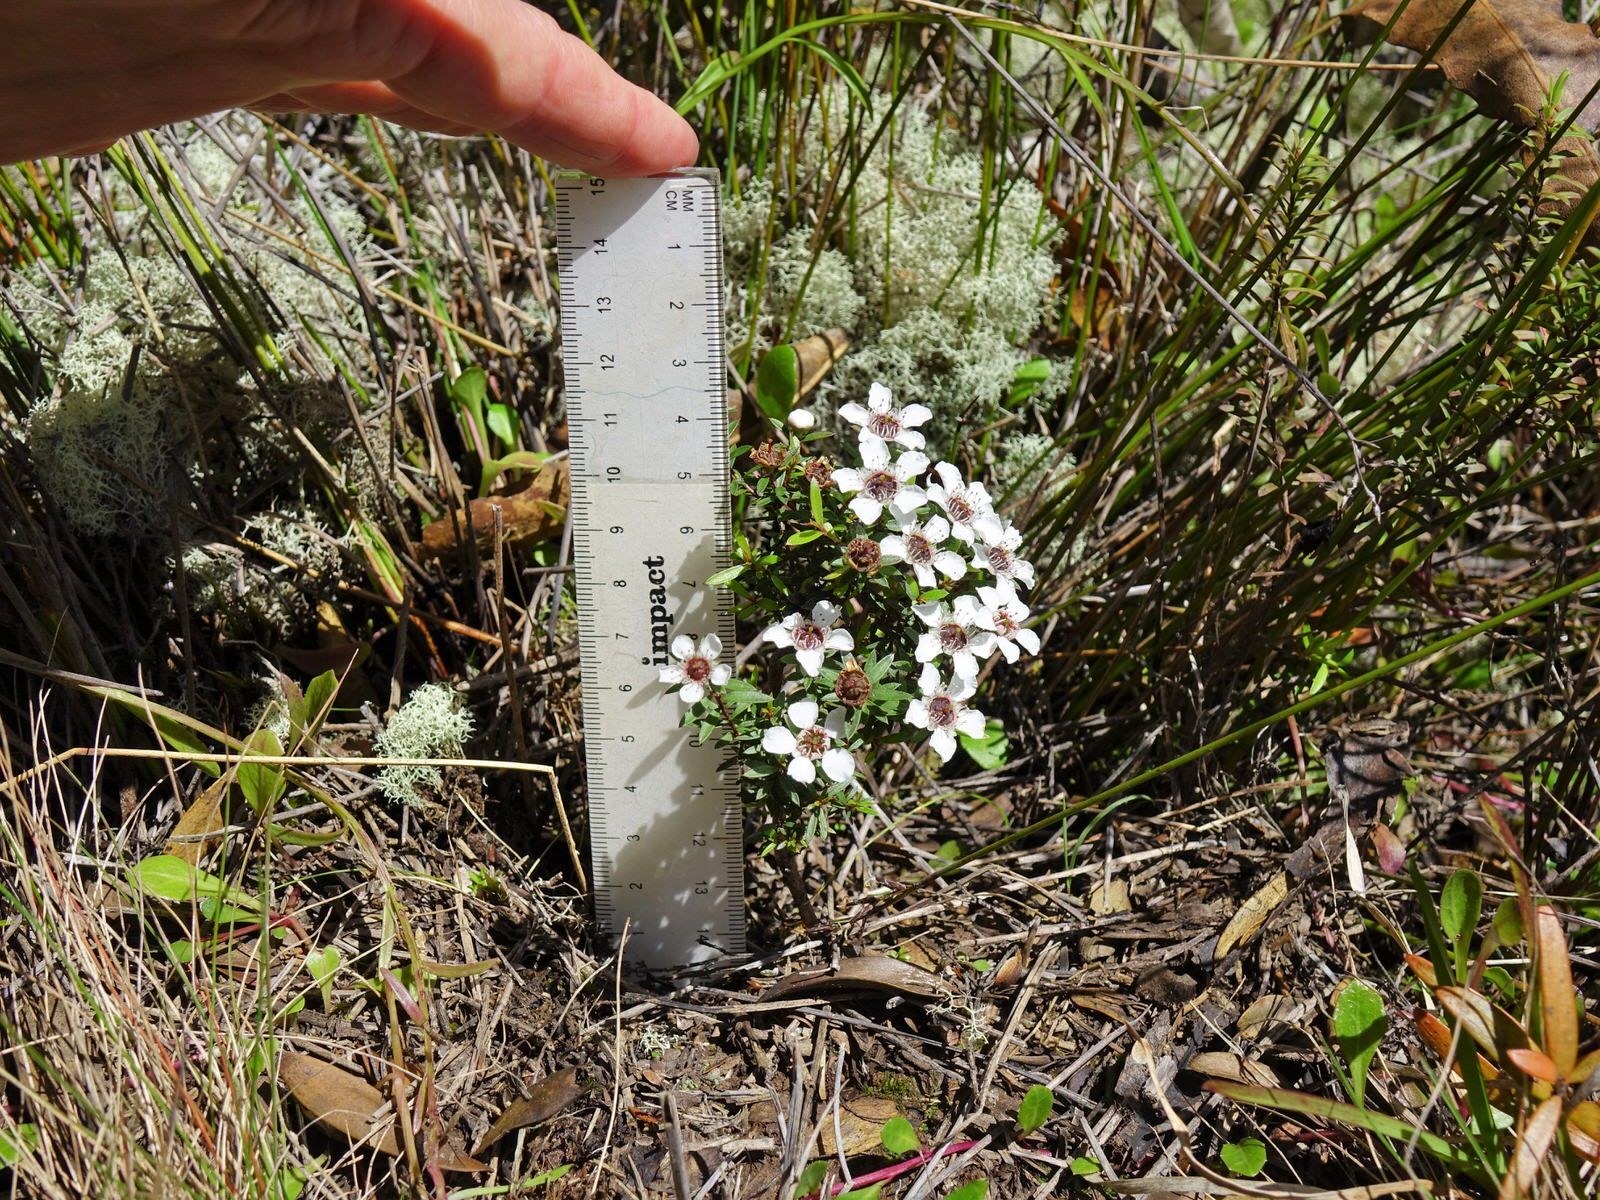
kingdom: Plantae
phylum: Tracheophyta
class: Magnoliopsida
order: Myrtales
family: Myrtaceae
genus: Leptospermum
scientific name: Leptospermum scoparium
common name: Broom tea-tree
